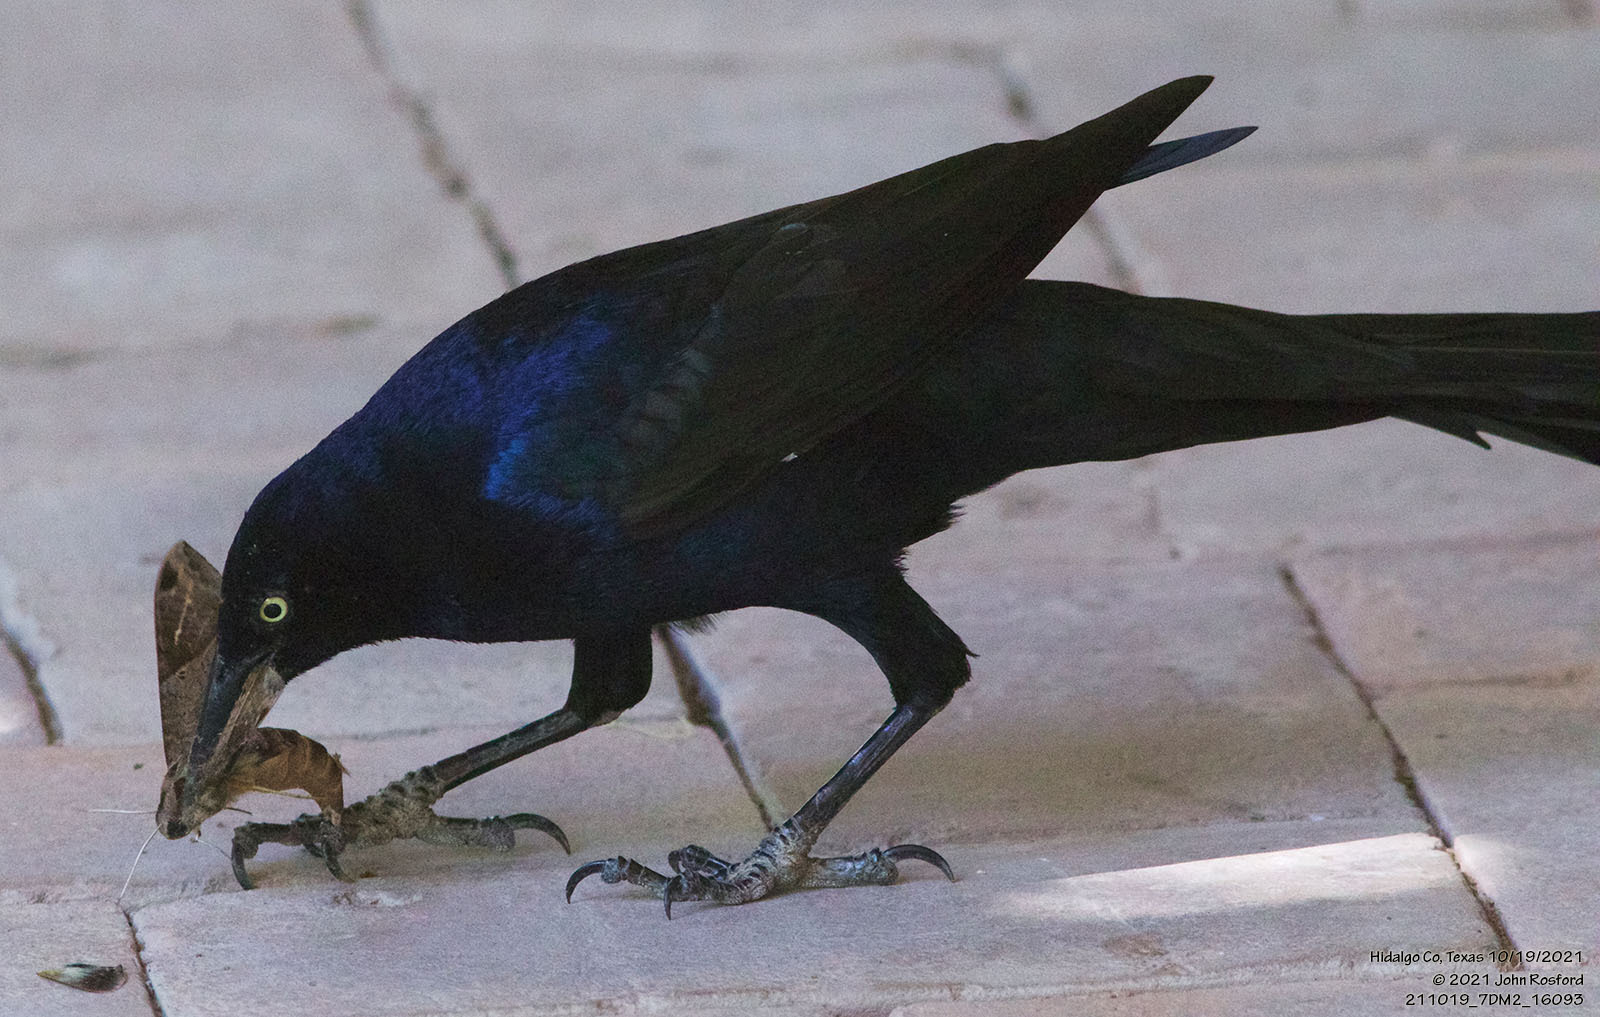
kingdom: Animalia
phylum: Chordata
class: Aves
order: Passeriformes
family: Icteridae
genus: Quiscalus
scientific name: Quiscalus mexicanus
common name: Great-tailed grackle
